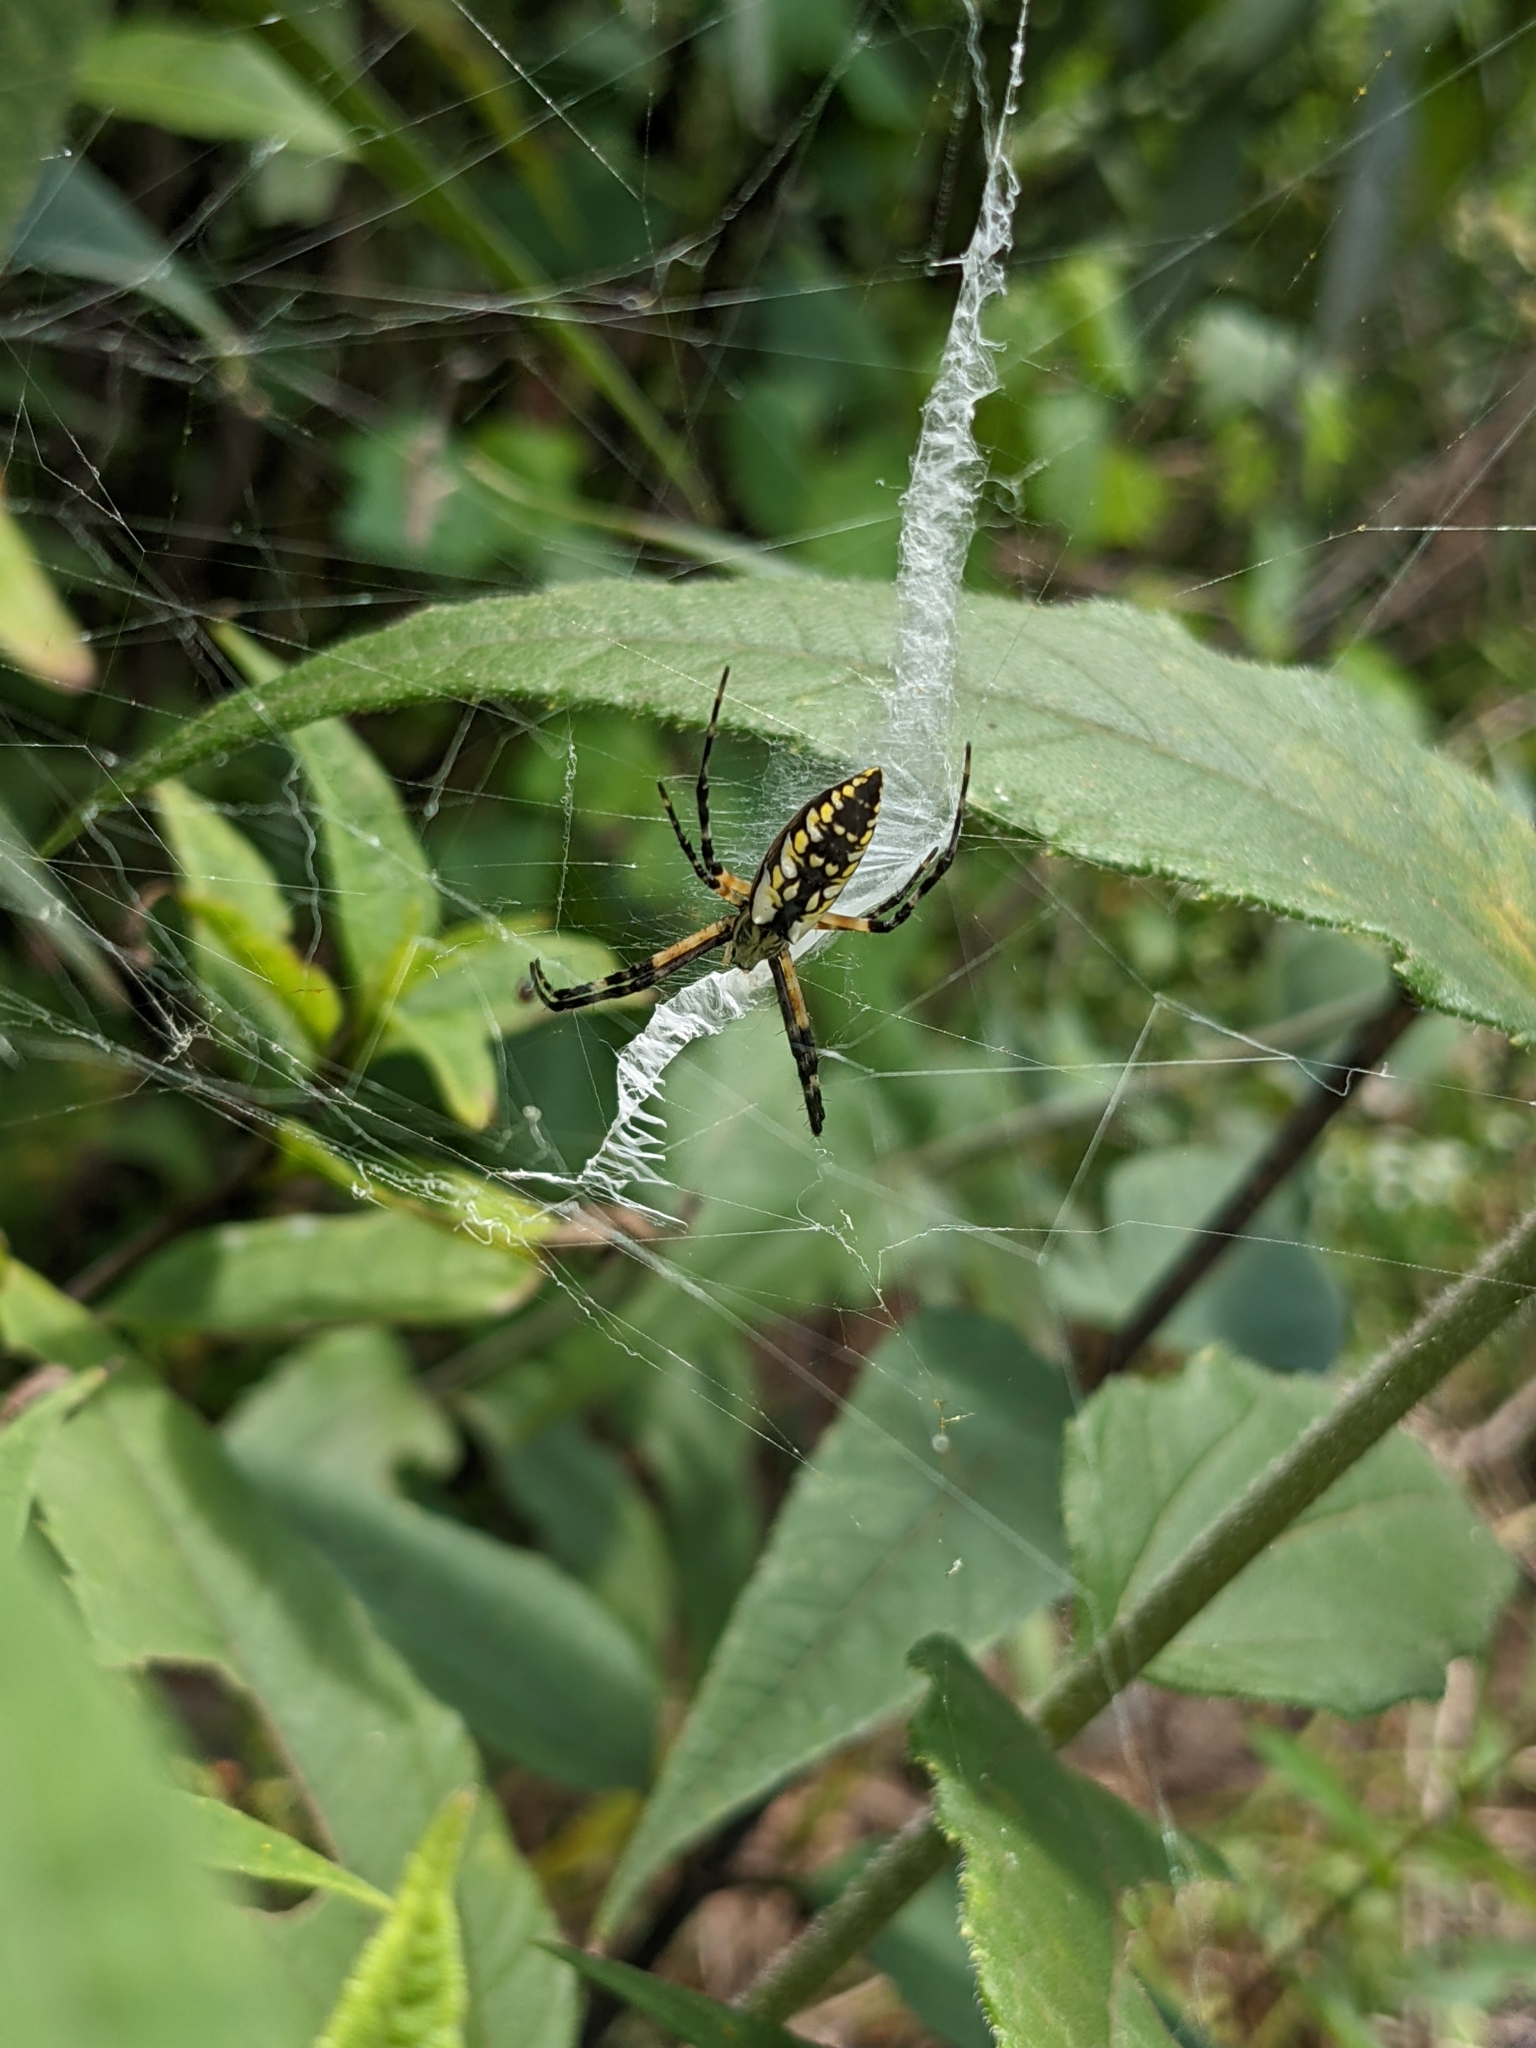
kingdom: Animalia
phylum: Arthropoda
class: Arachnida
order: Araneae
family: Araneidae
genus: Argiope
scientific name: Argiope aurantia
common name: Orb weavers
